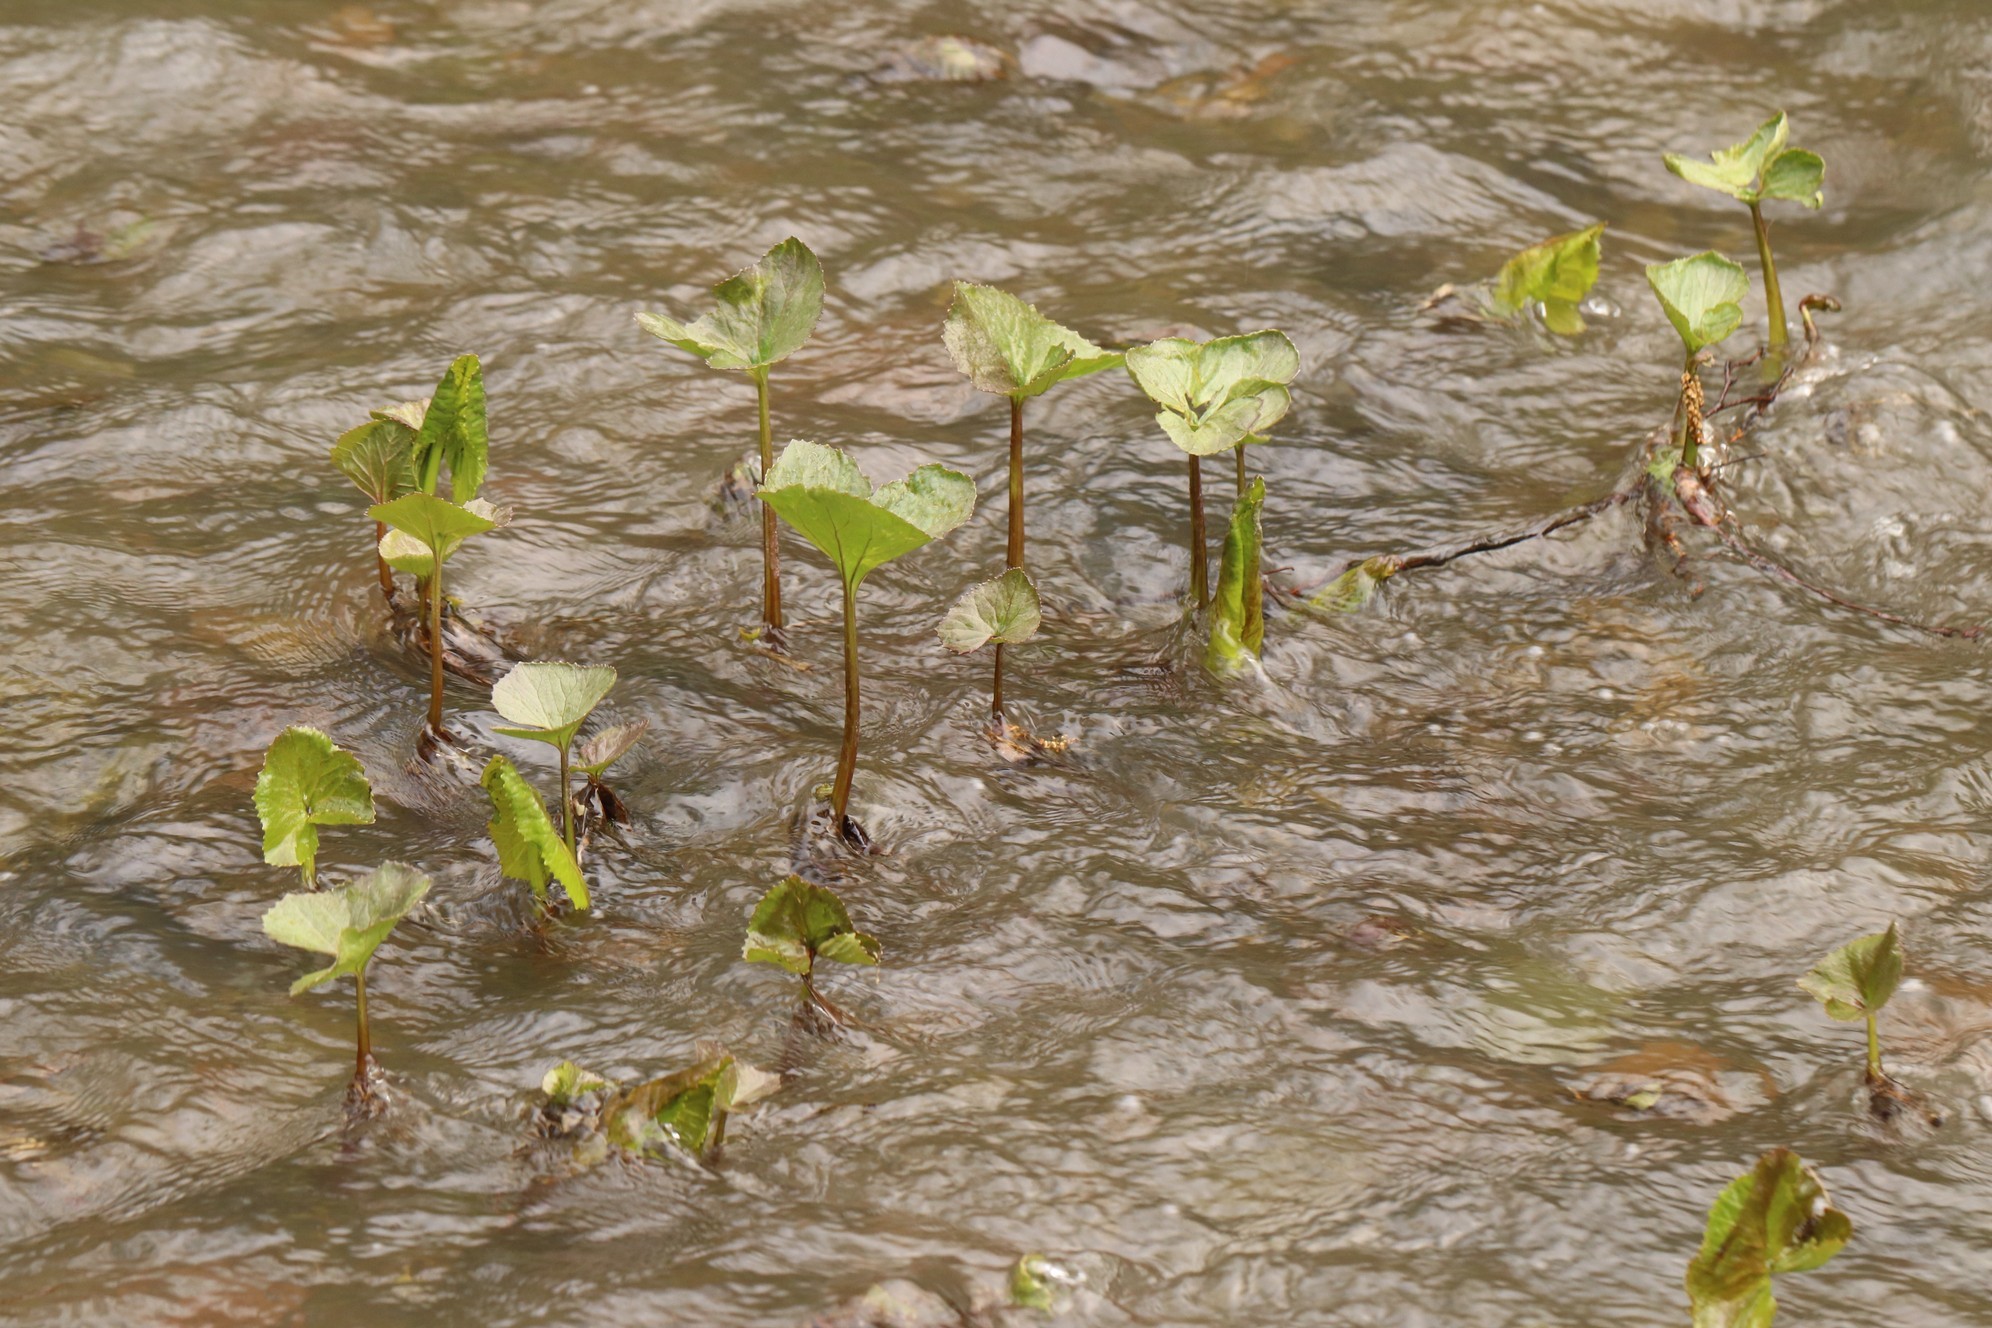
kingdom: Plantae
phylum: Tracheophyta
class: Magnoliopsida
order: Asterales
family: Asteraceae
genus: Petasites
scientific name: Petasites radiatus
